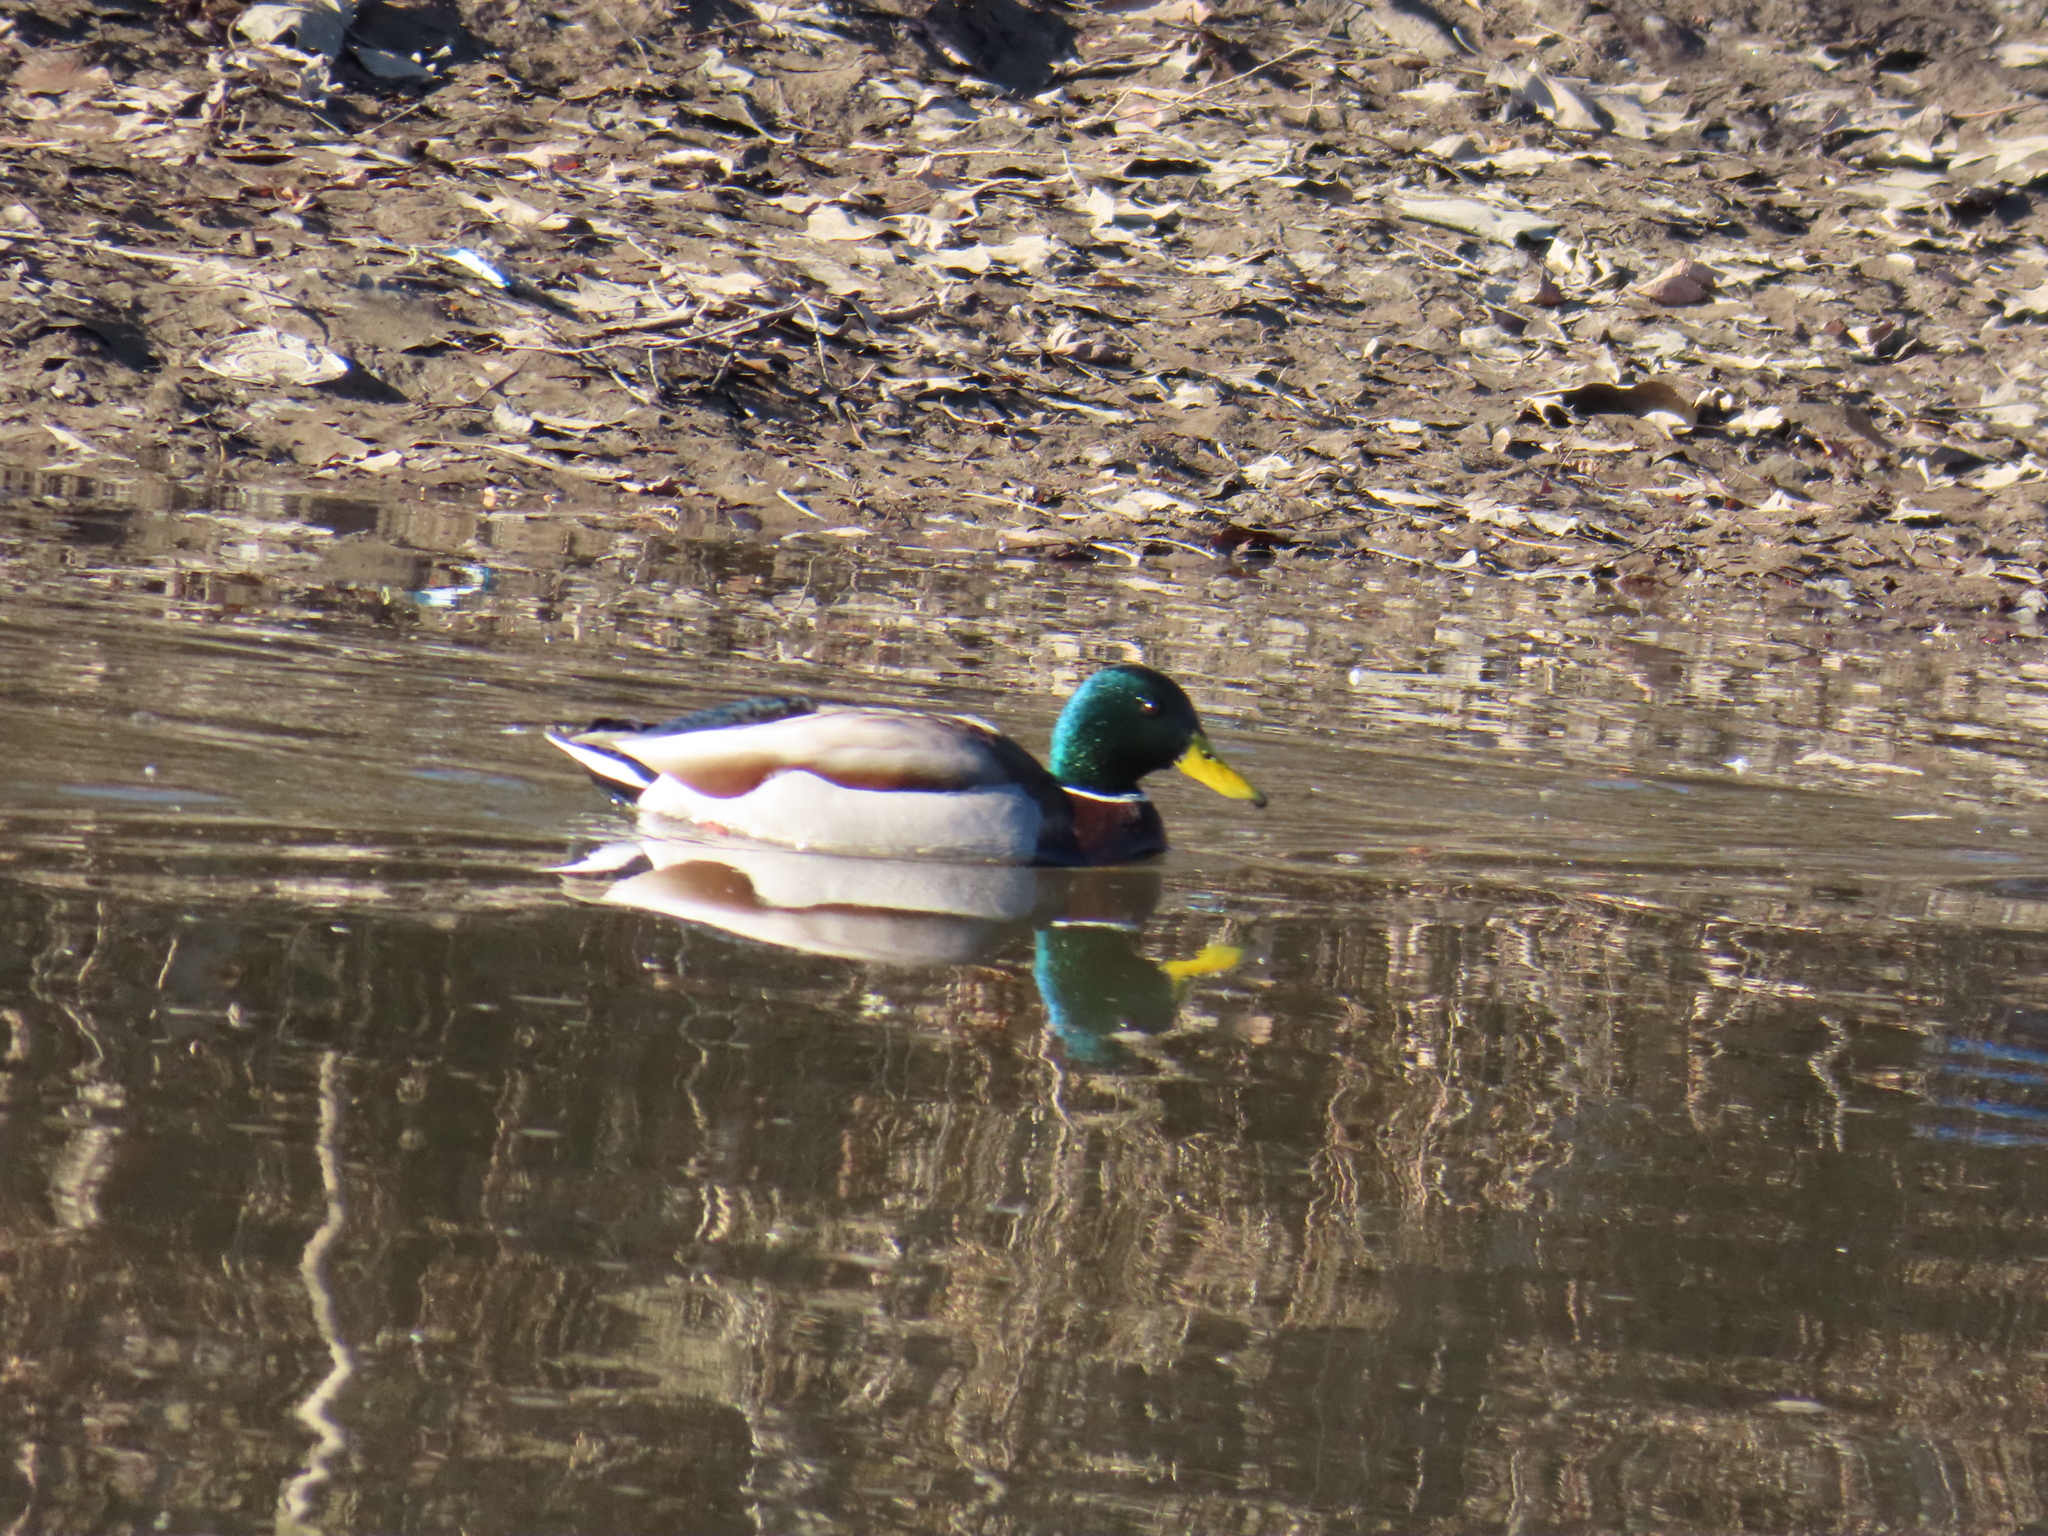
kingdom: Animalia
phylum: Chordata
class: Aves
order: Anseriformes
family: Anatidae
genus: Anas
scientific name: Anas platyrhynchos
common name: Mallard
